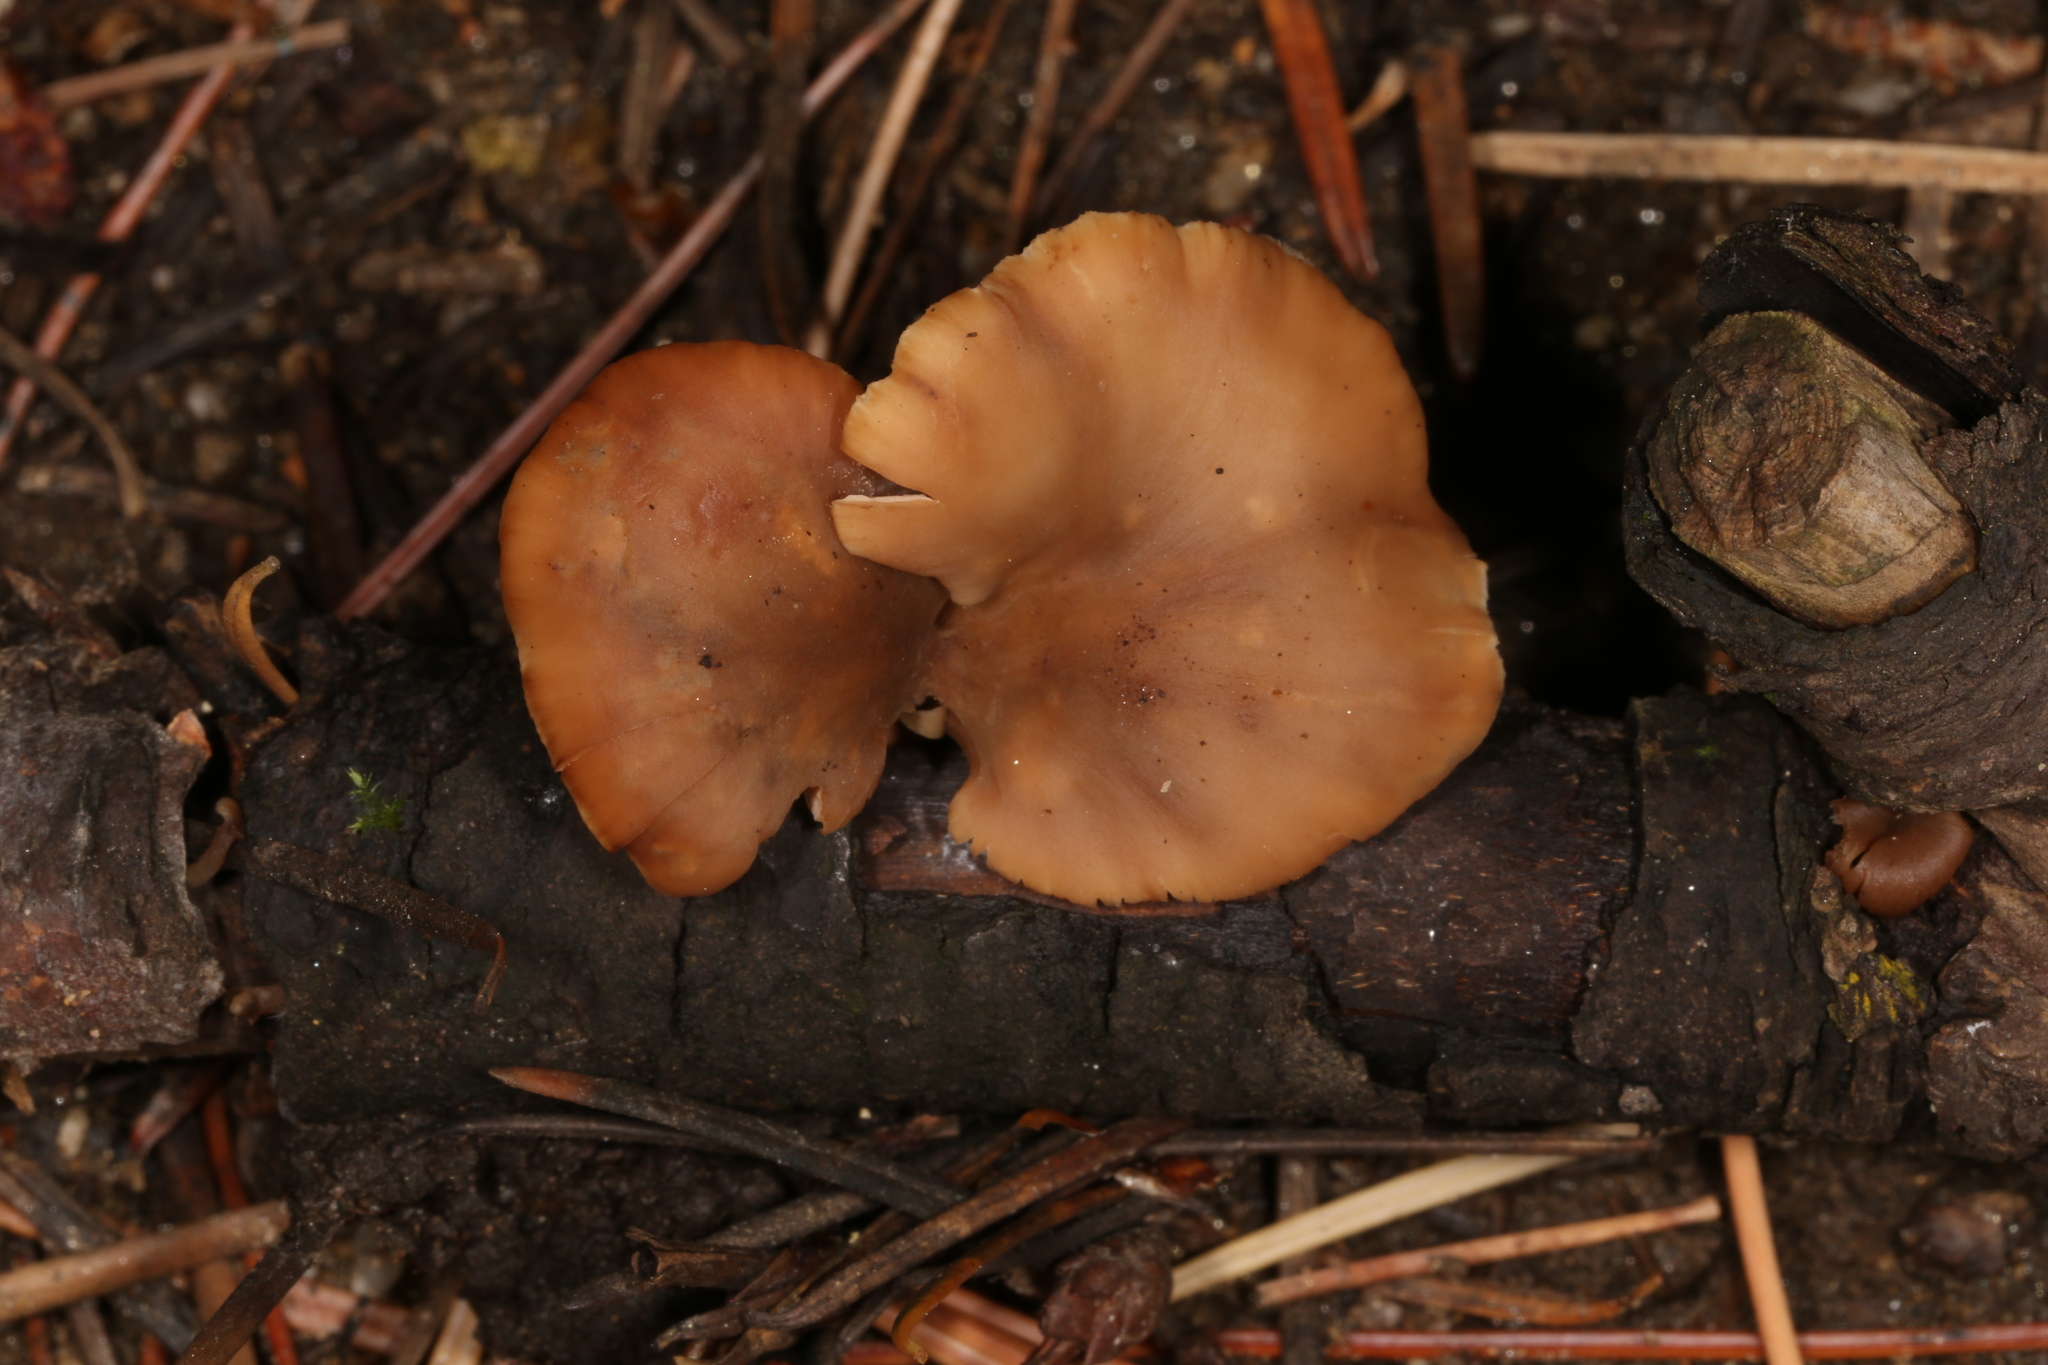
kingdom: Fungi
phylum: Basidiomycota
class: Agaricomycetes
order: Russulales
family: Auriscalpiaceae
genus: Lentinellus
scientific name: Lentinellus cochleatus
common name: Aniseed cockleshell
